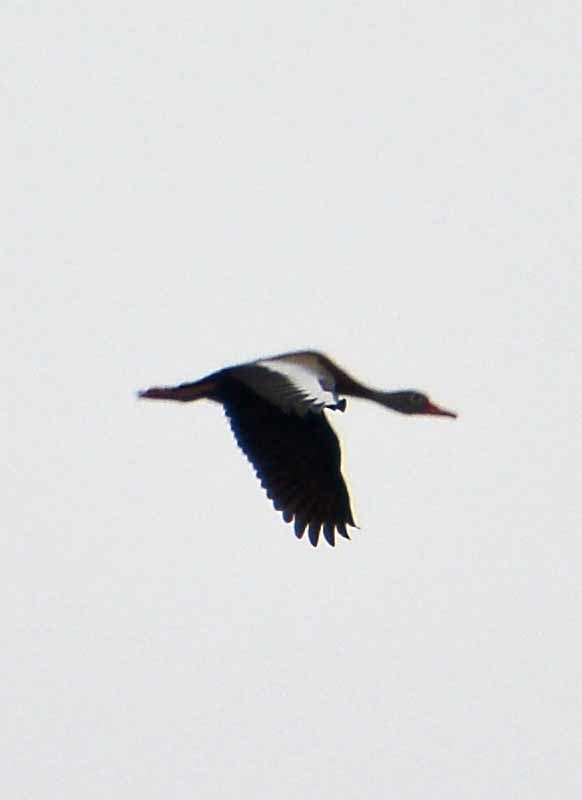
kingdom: Animalia
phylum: Chordata
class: Aves
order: Anseriformes
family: Anatidae
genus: Dendrocygna
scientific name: Dendrocygna autumnalis
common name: Black-bellied whistling duck
